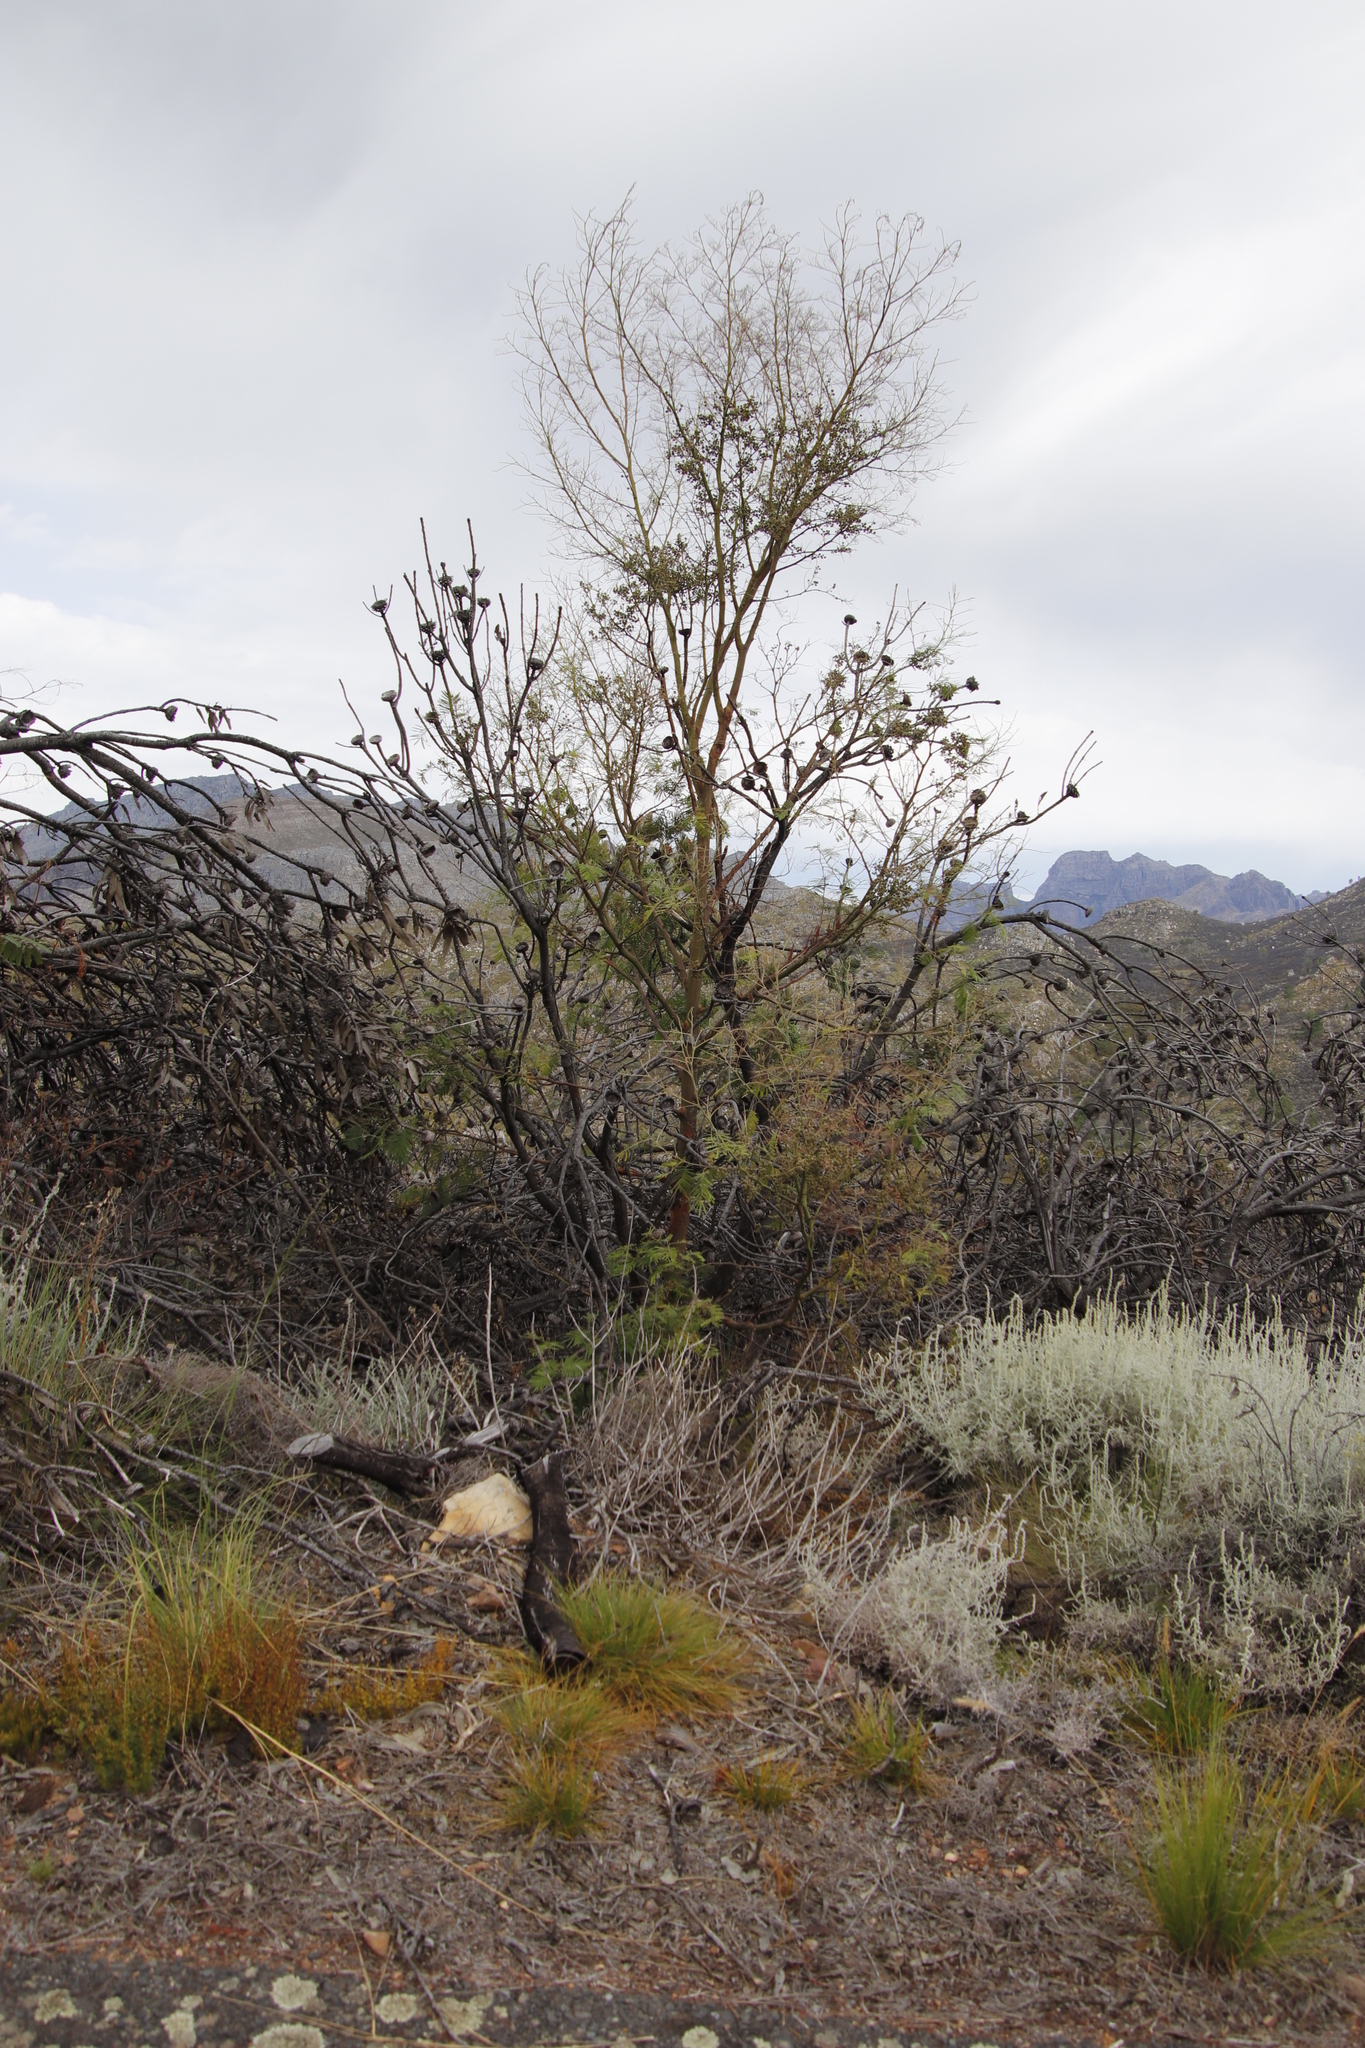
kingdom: Plantae
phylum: Tracheophyta
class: Magnoliopsida
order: Fabales
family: Fabaceae
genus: Acacia
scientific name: Acacia mearnsii
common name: Black wattle
